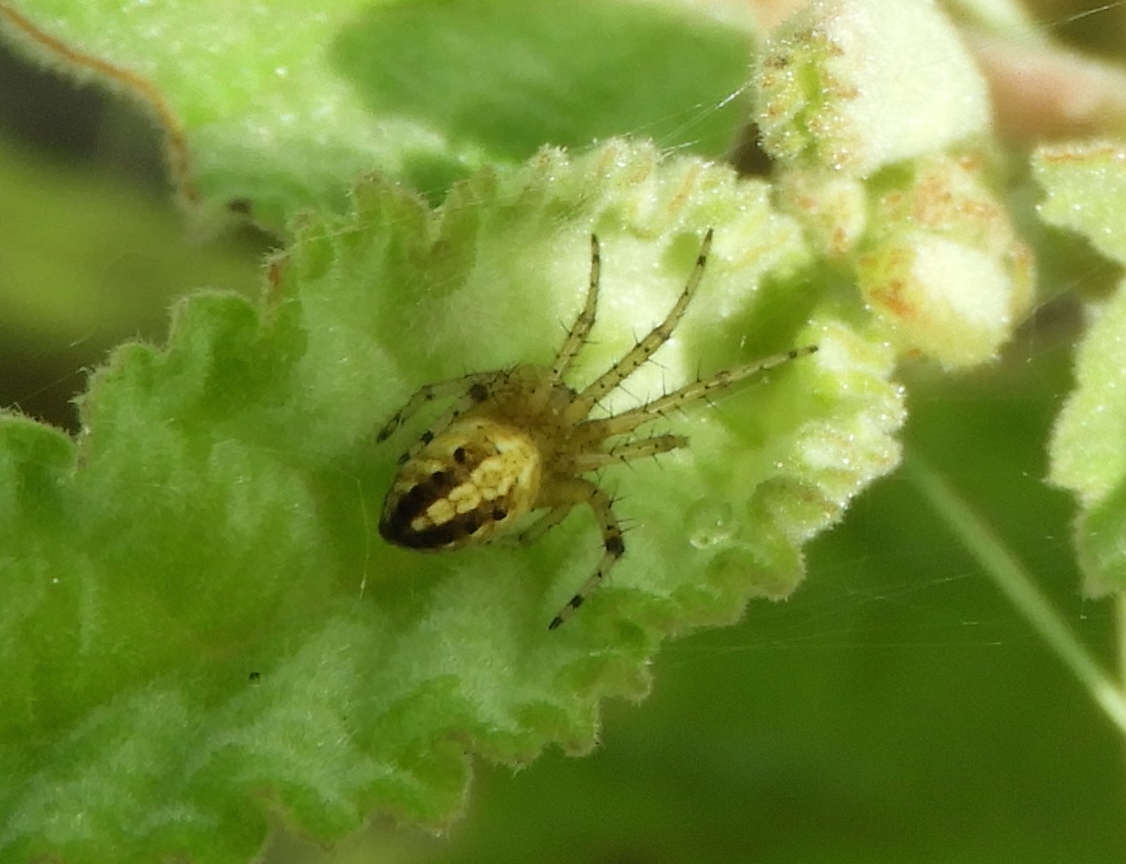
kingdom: Animalia
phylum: Arthropoda
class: Arachnida
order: Araneae
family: Araneidae
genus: Neoscona
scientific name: Neoscona
